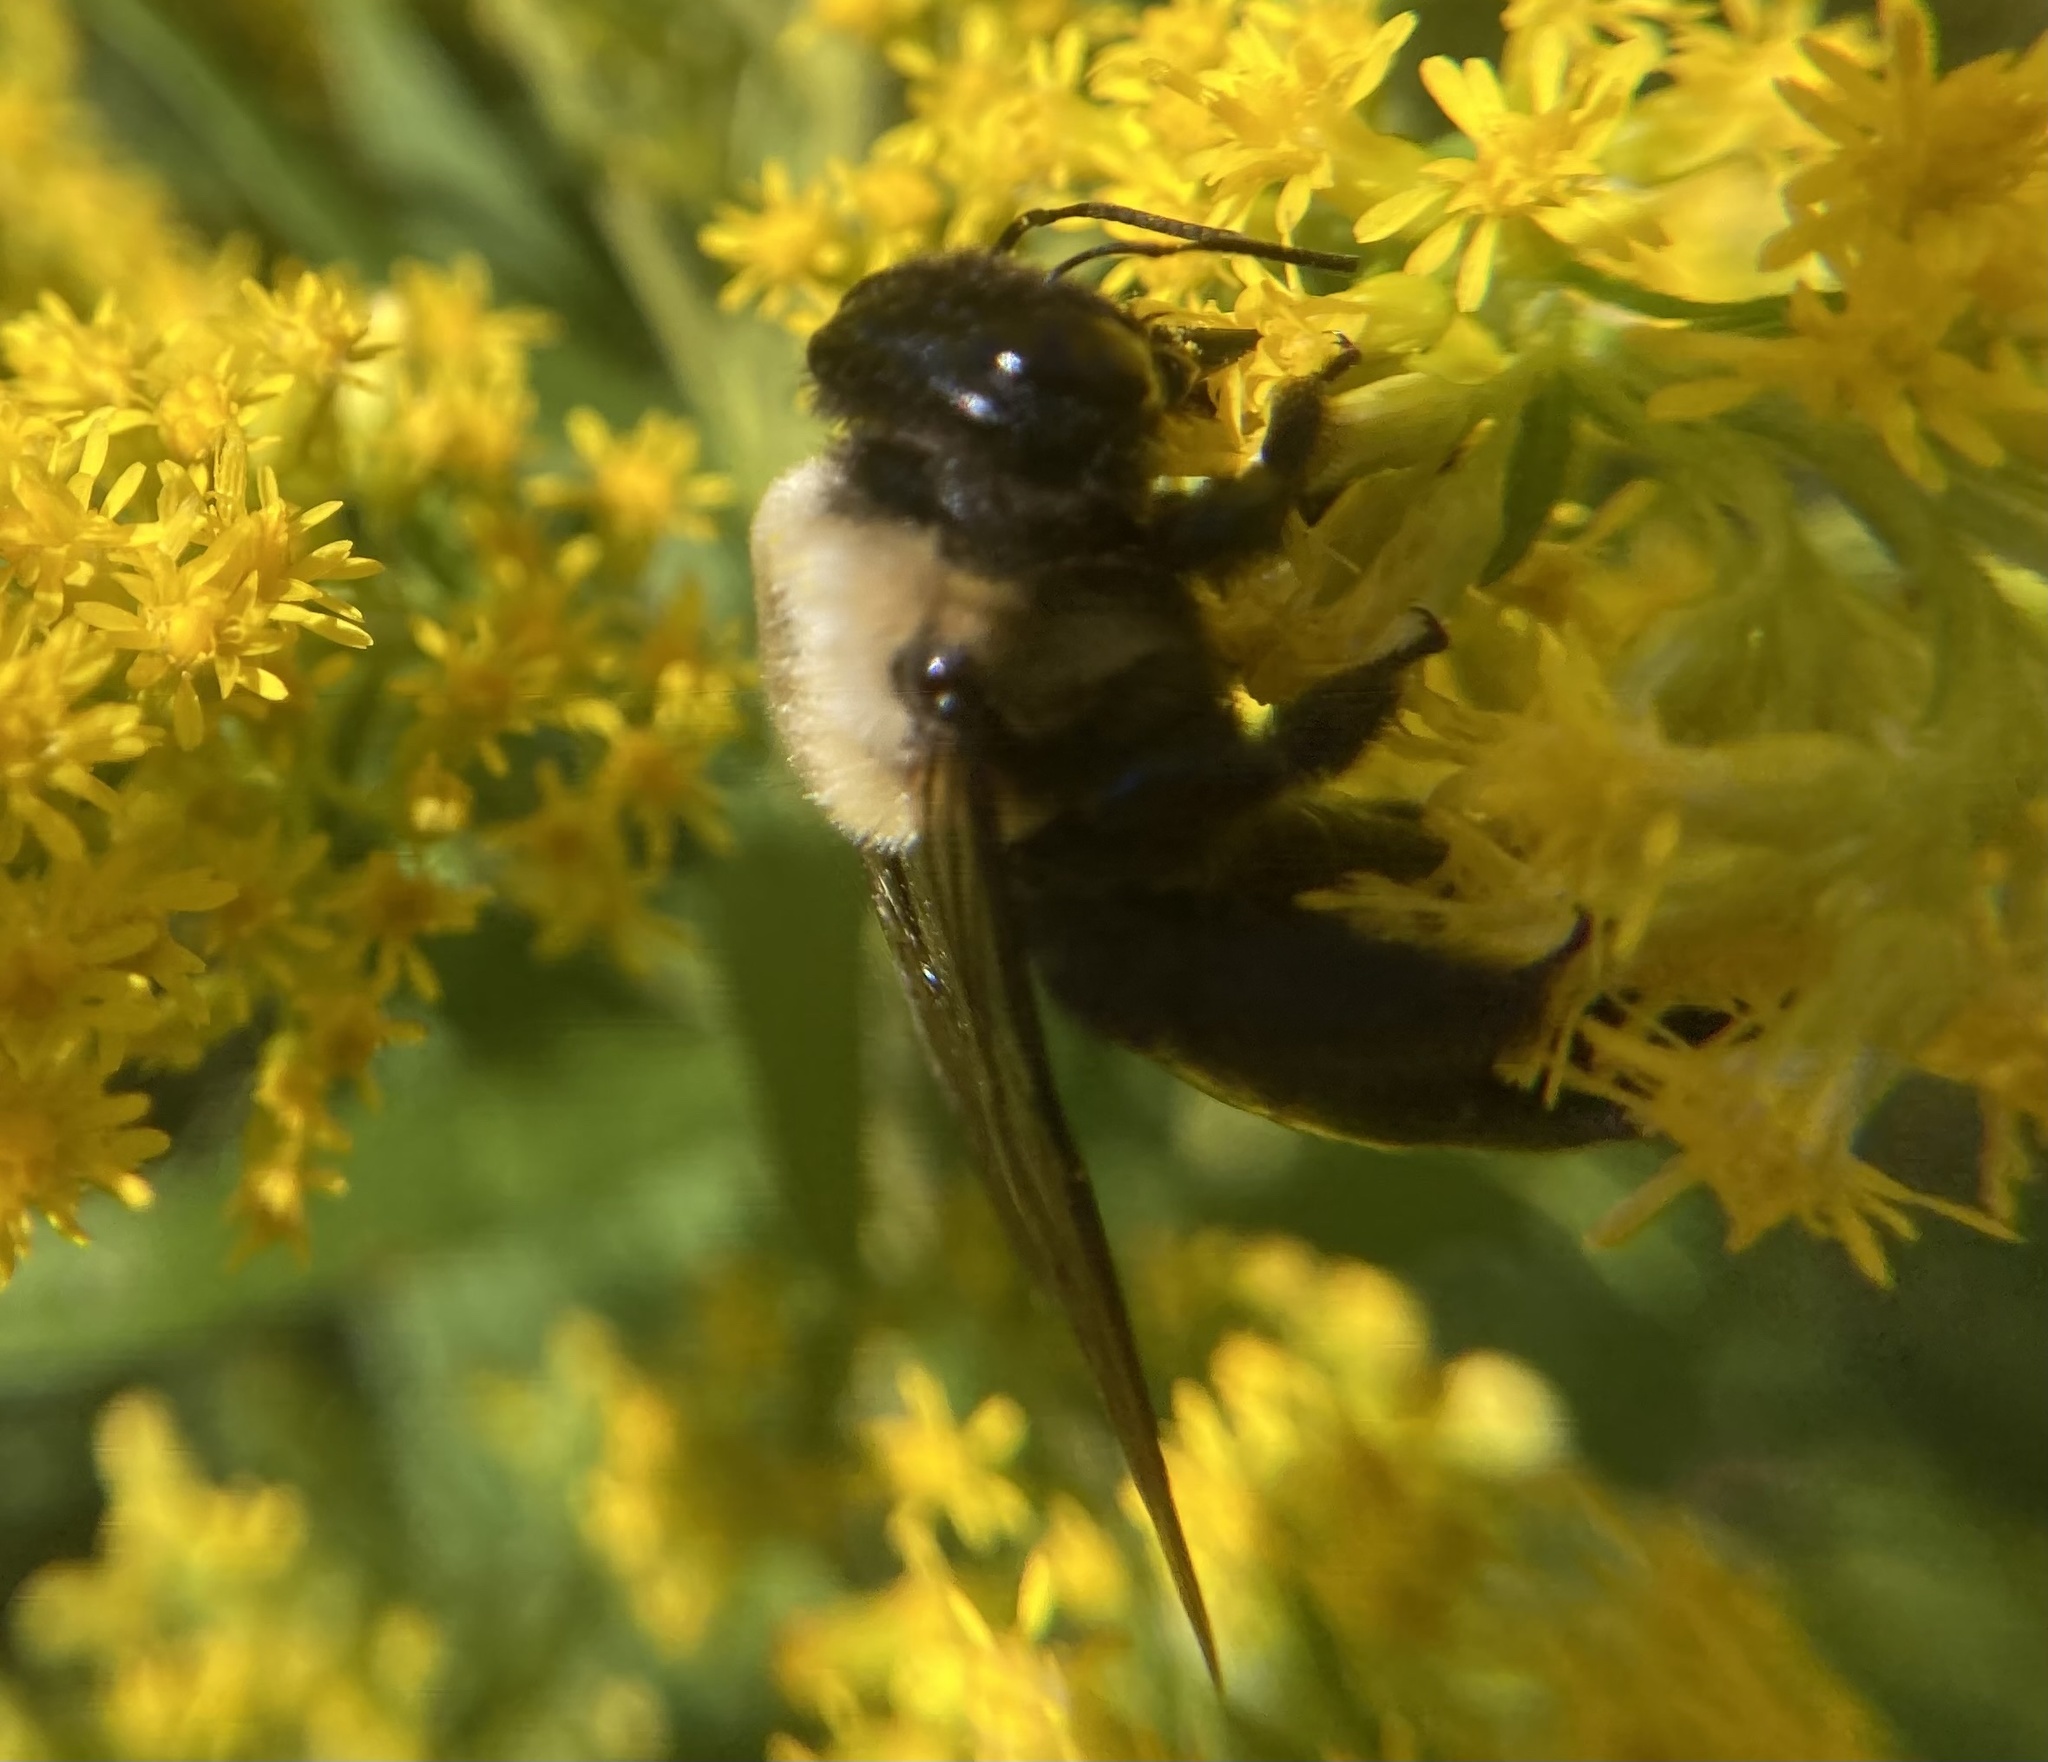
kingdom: Animalia
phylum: Arthropoda
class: Insecta
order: Hymenoptera
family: Apidae
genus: Xylocopa
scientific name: Xylocopa virginica
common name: Carpenter bee
